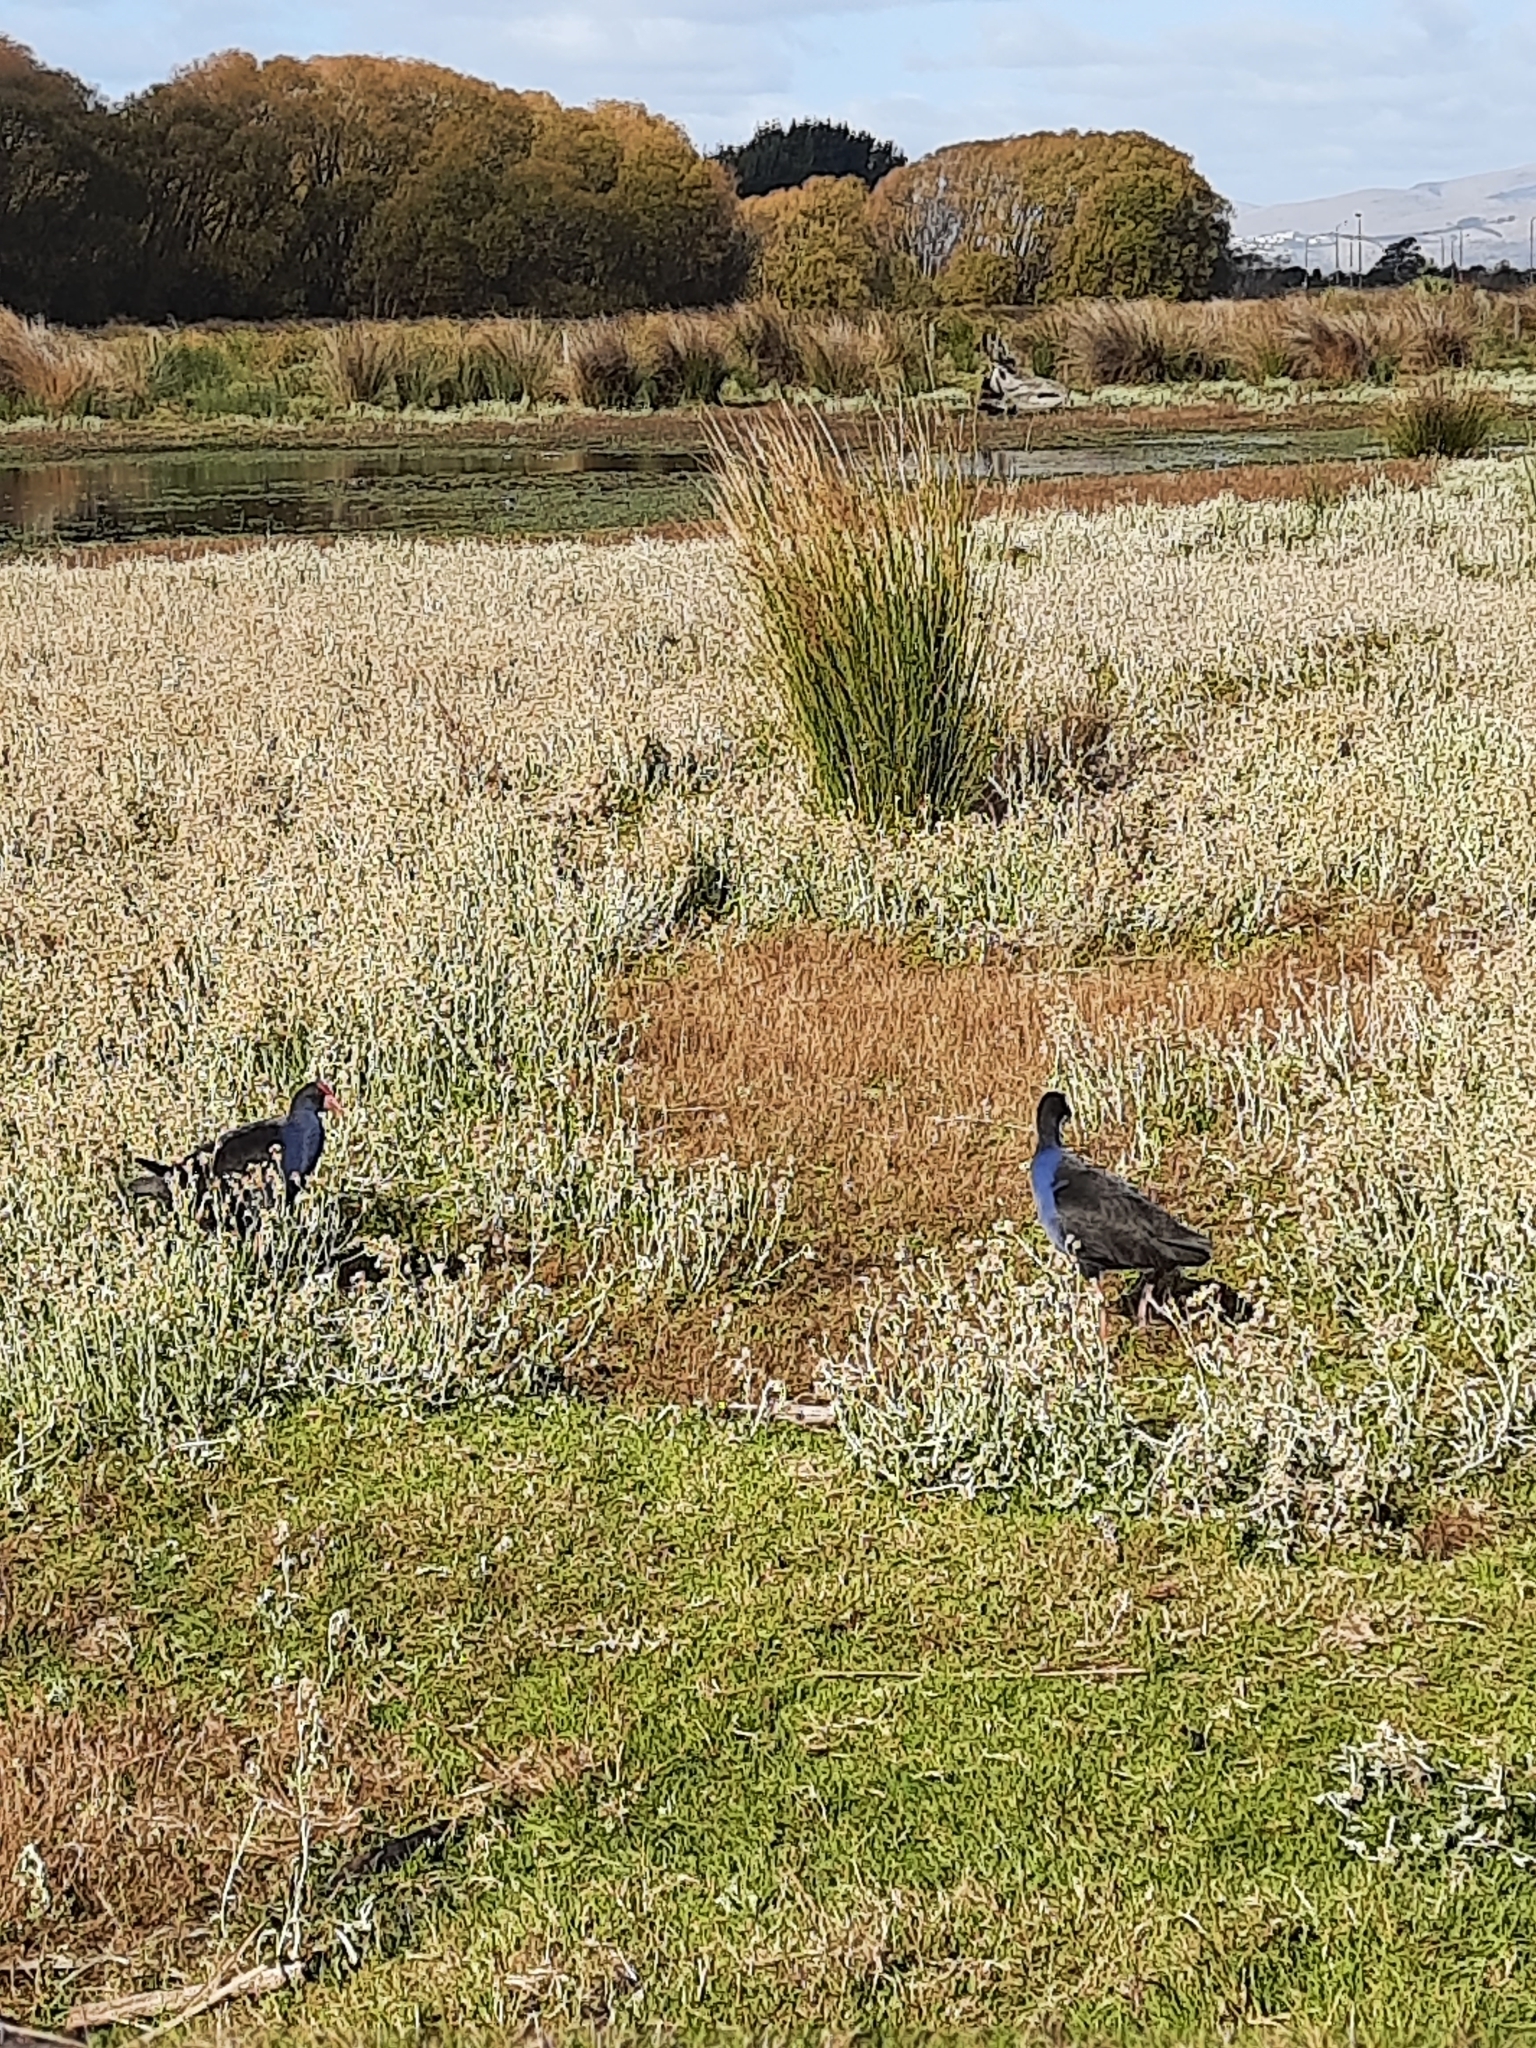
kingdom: Animalia
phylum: Chordata
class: Aves
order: Gruiformes
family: Rallidae
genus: Porphyrio
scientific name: Porphyrio melanotus
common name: Australasian swamphen
